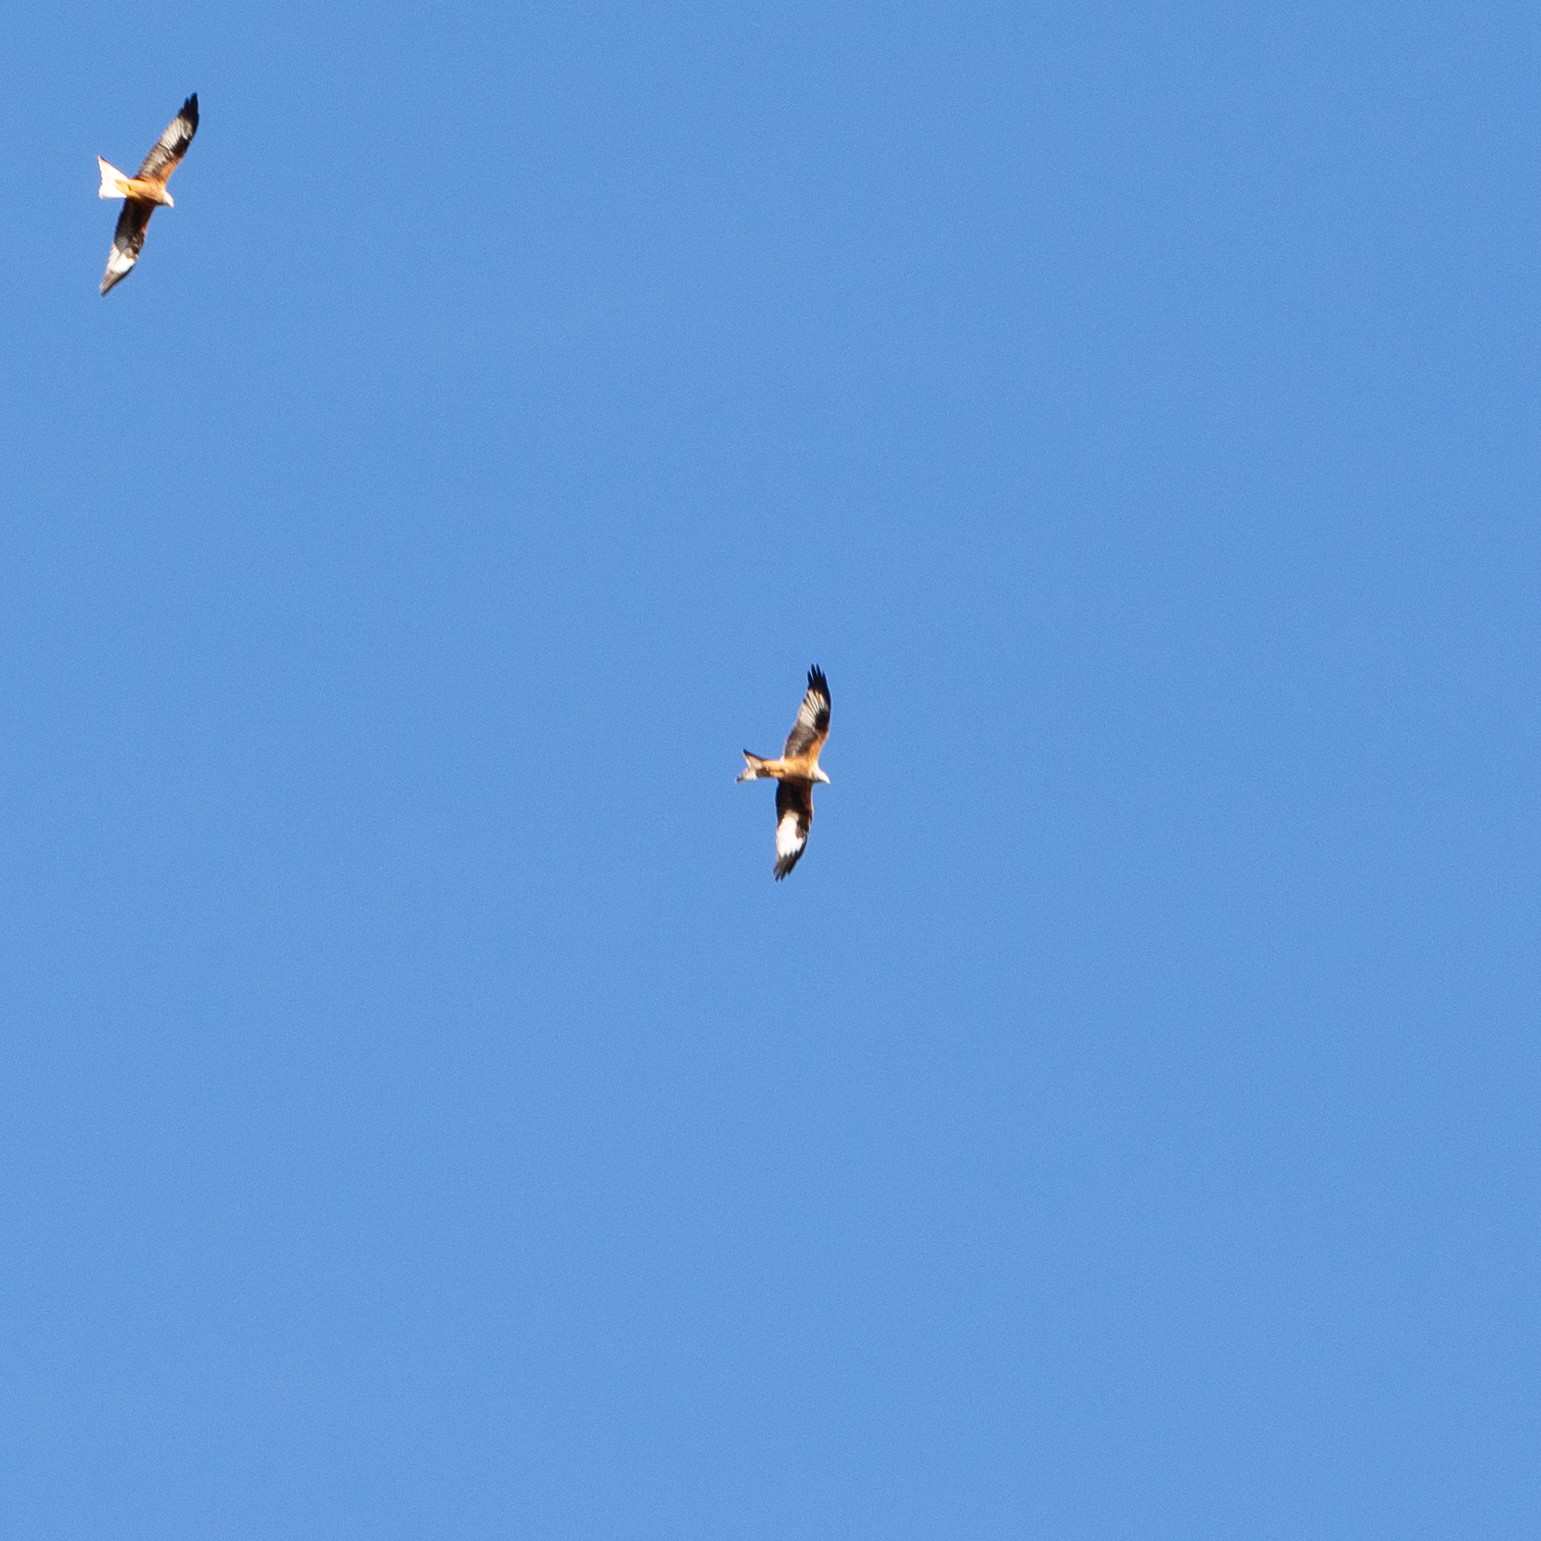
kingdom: Animalia
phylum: Chordata
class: Aves
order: Accipitriformes
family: Accipitridae
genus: Milvus
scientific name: Milvus milvus
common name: Red kite
